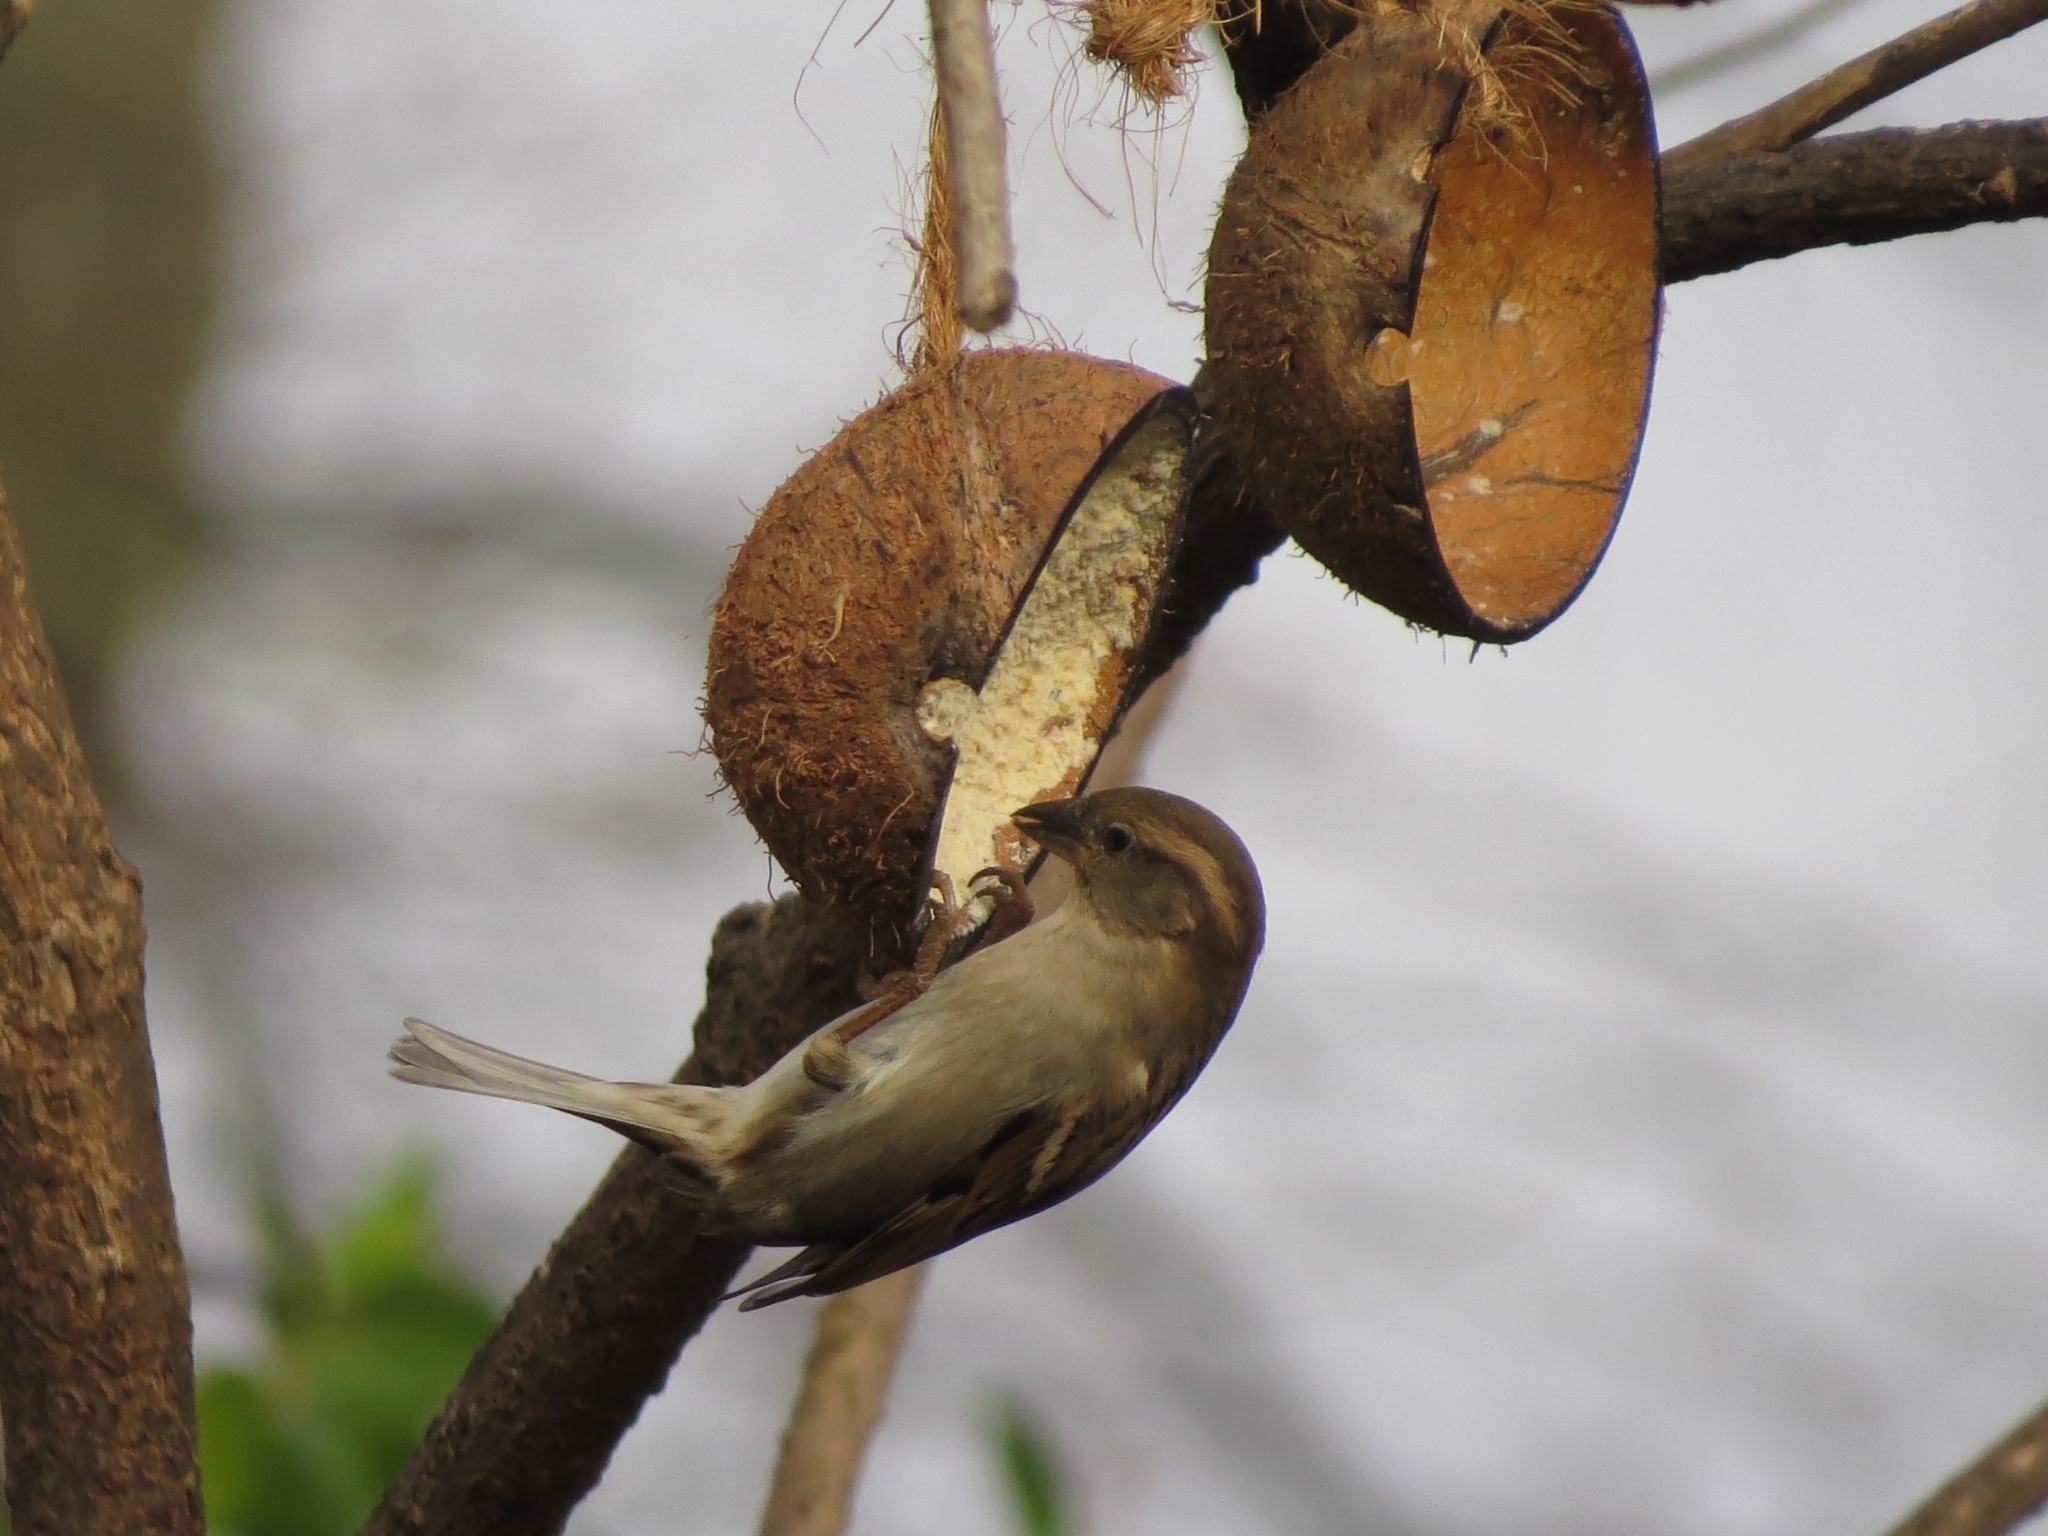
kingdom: Animalia
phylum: Chordata
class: Aves
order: Passeriformes
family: Passeridae
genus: Passer
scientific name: Passer domesticus
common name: House sparrow
